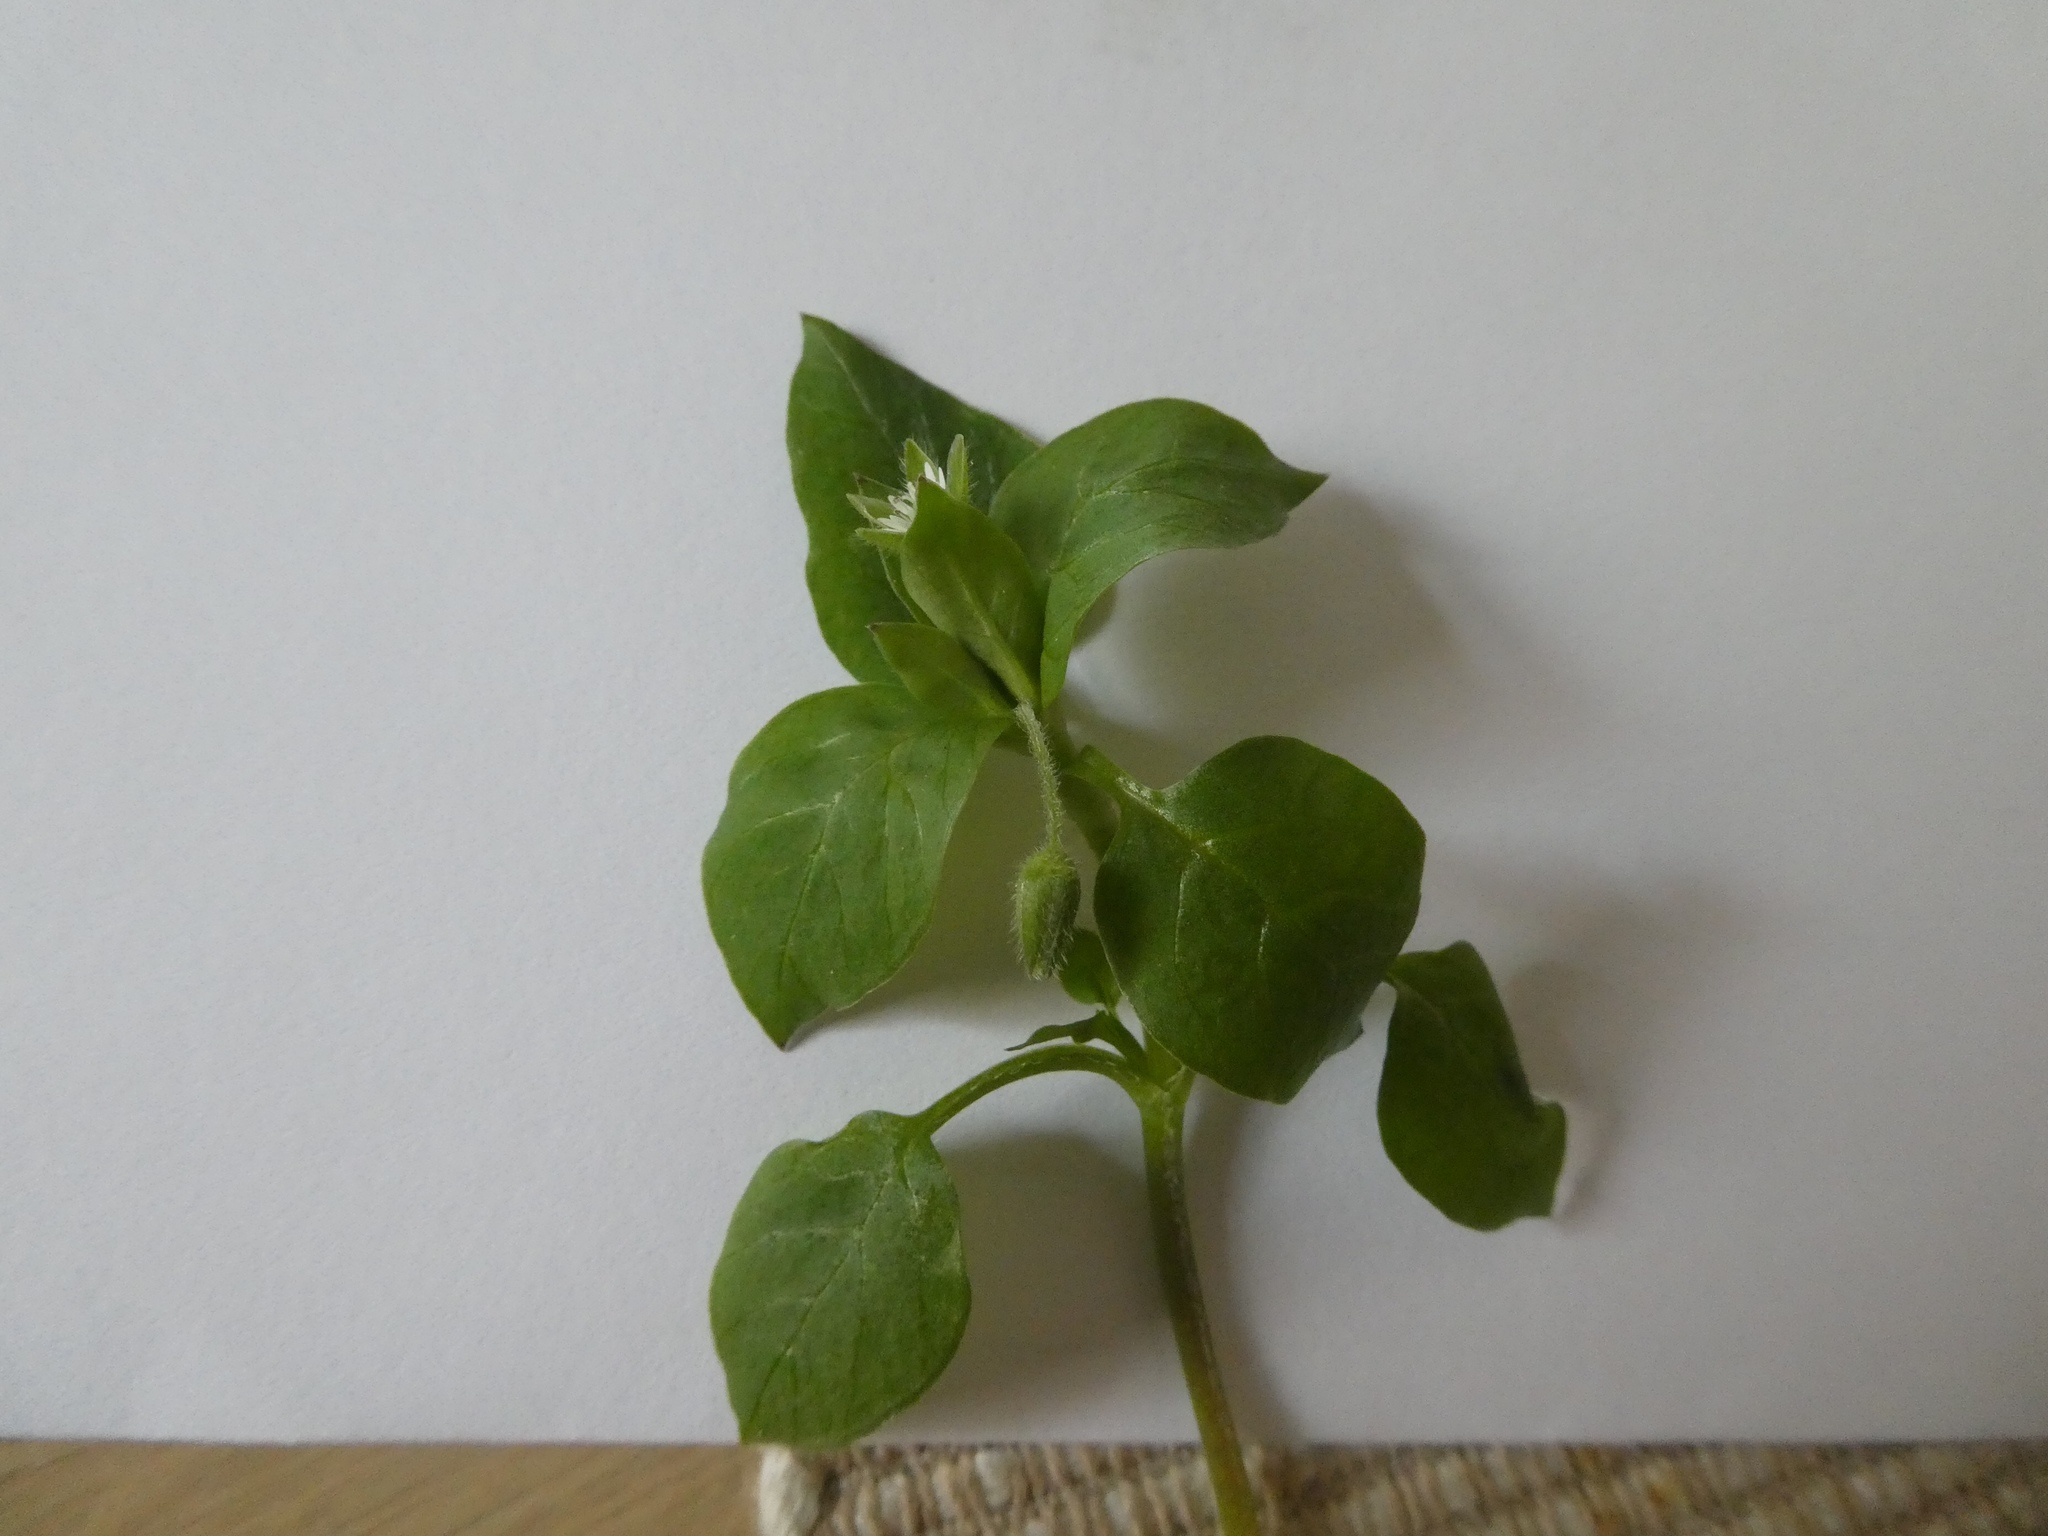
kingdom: Plantae
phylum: Tracheophyta
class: Magnoliopsida
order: Caryophyllales
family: Caryophyllaceae
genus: Stellaria
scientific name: Stellaria media
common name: Common chickweed
